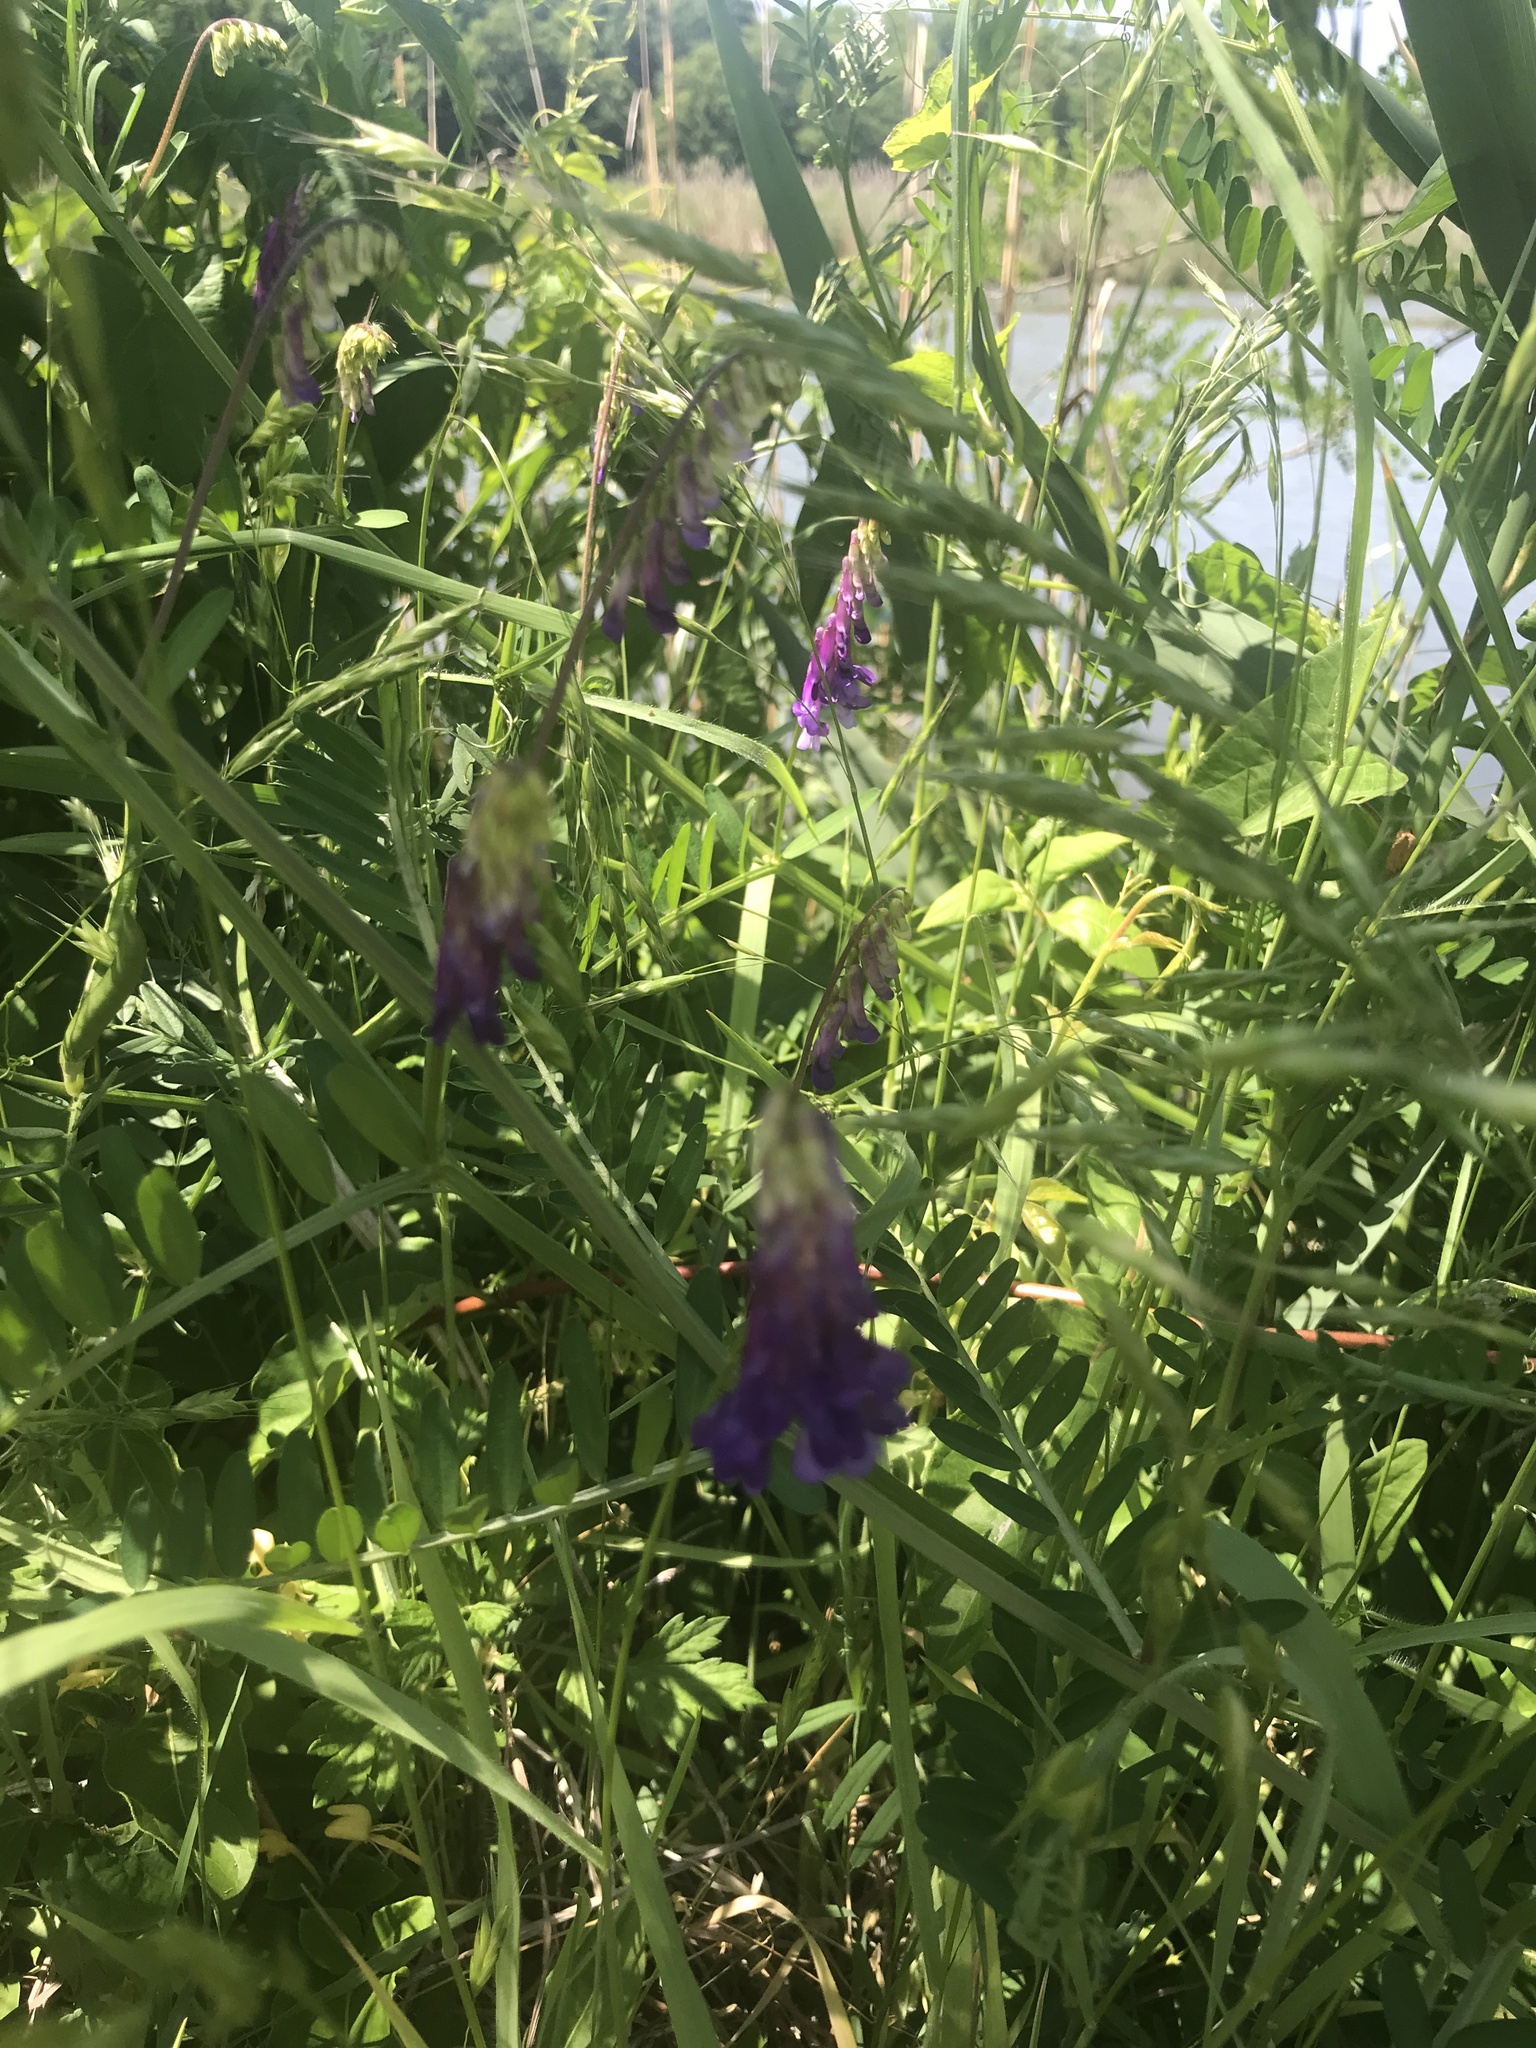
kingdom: Plantae
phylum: Tracheophyta
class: Magnoliopsida
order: Fabales
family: Fabaceae
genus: Vicia
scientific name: Vicia villosa
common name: Fodder vetch
